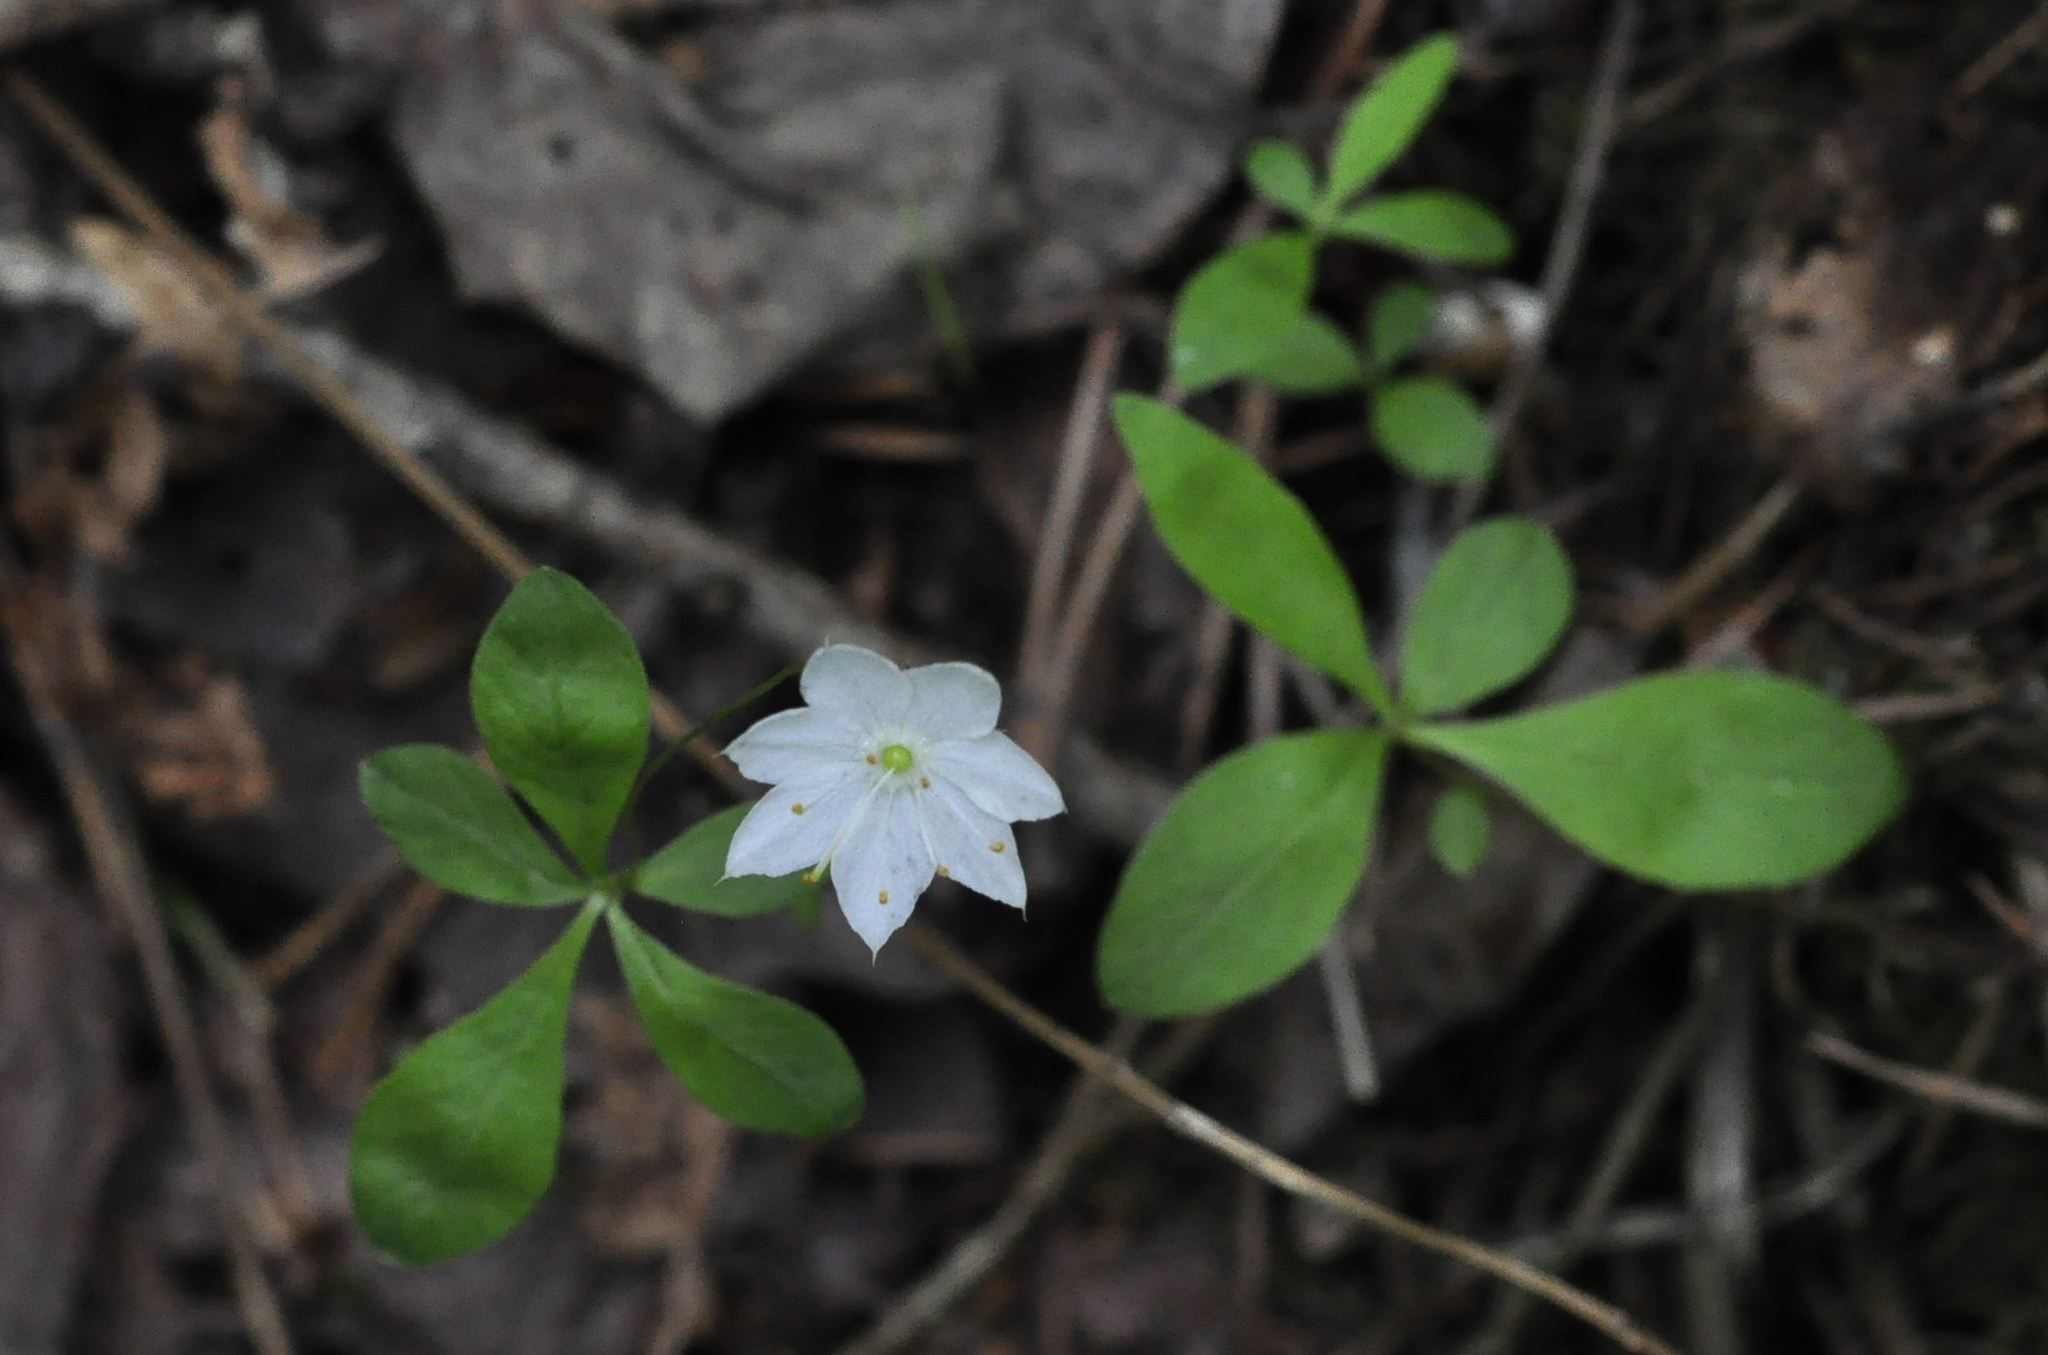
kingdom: Plantae
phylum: Tracheophyta
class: Magnoliopsida
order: Ericales
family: Primulaceae
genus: Lysimachia
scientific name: Lysimachia europaea
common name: Arctic starflower
